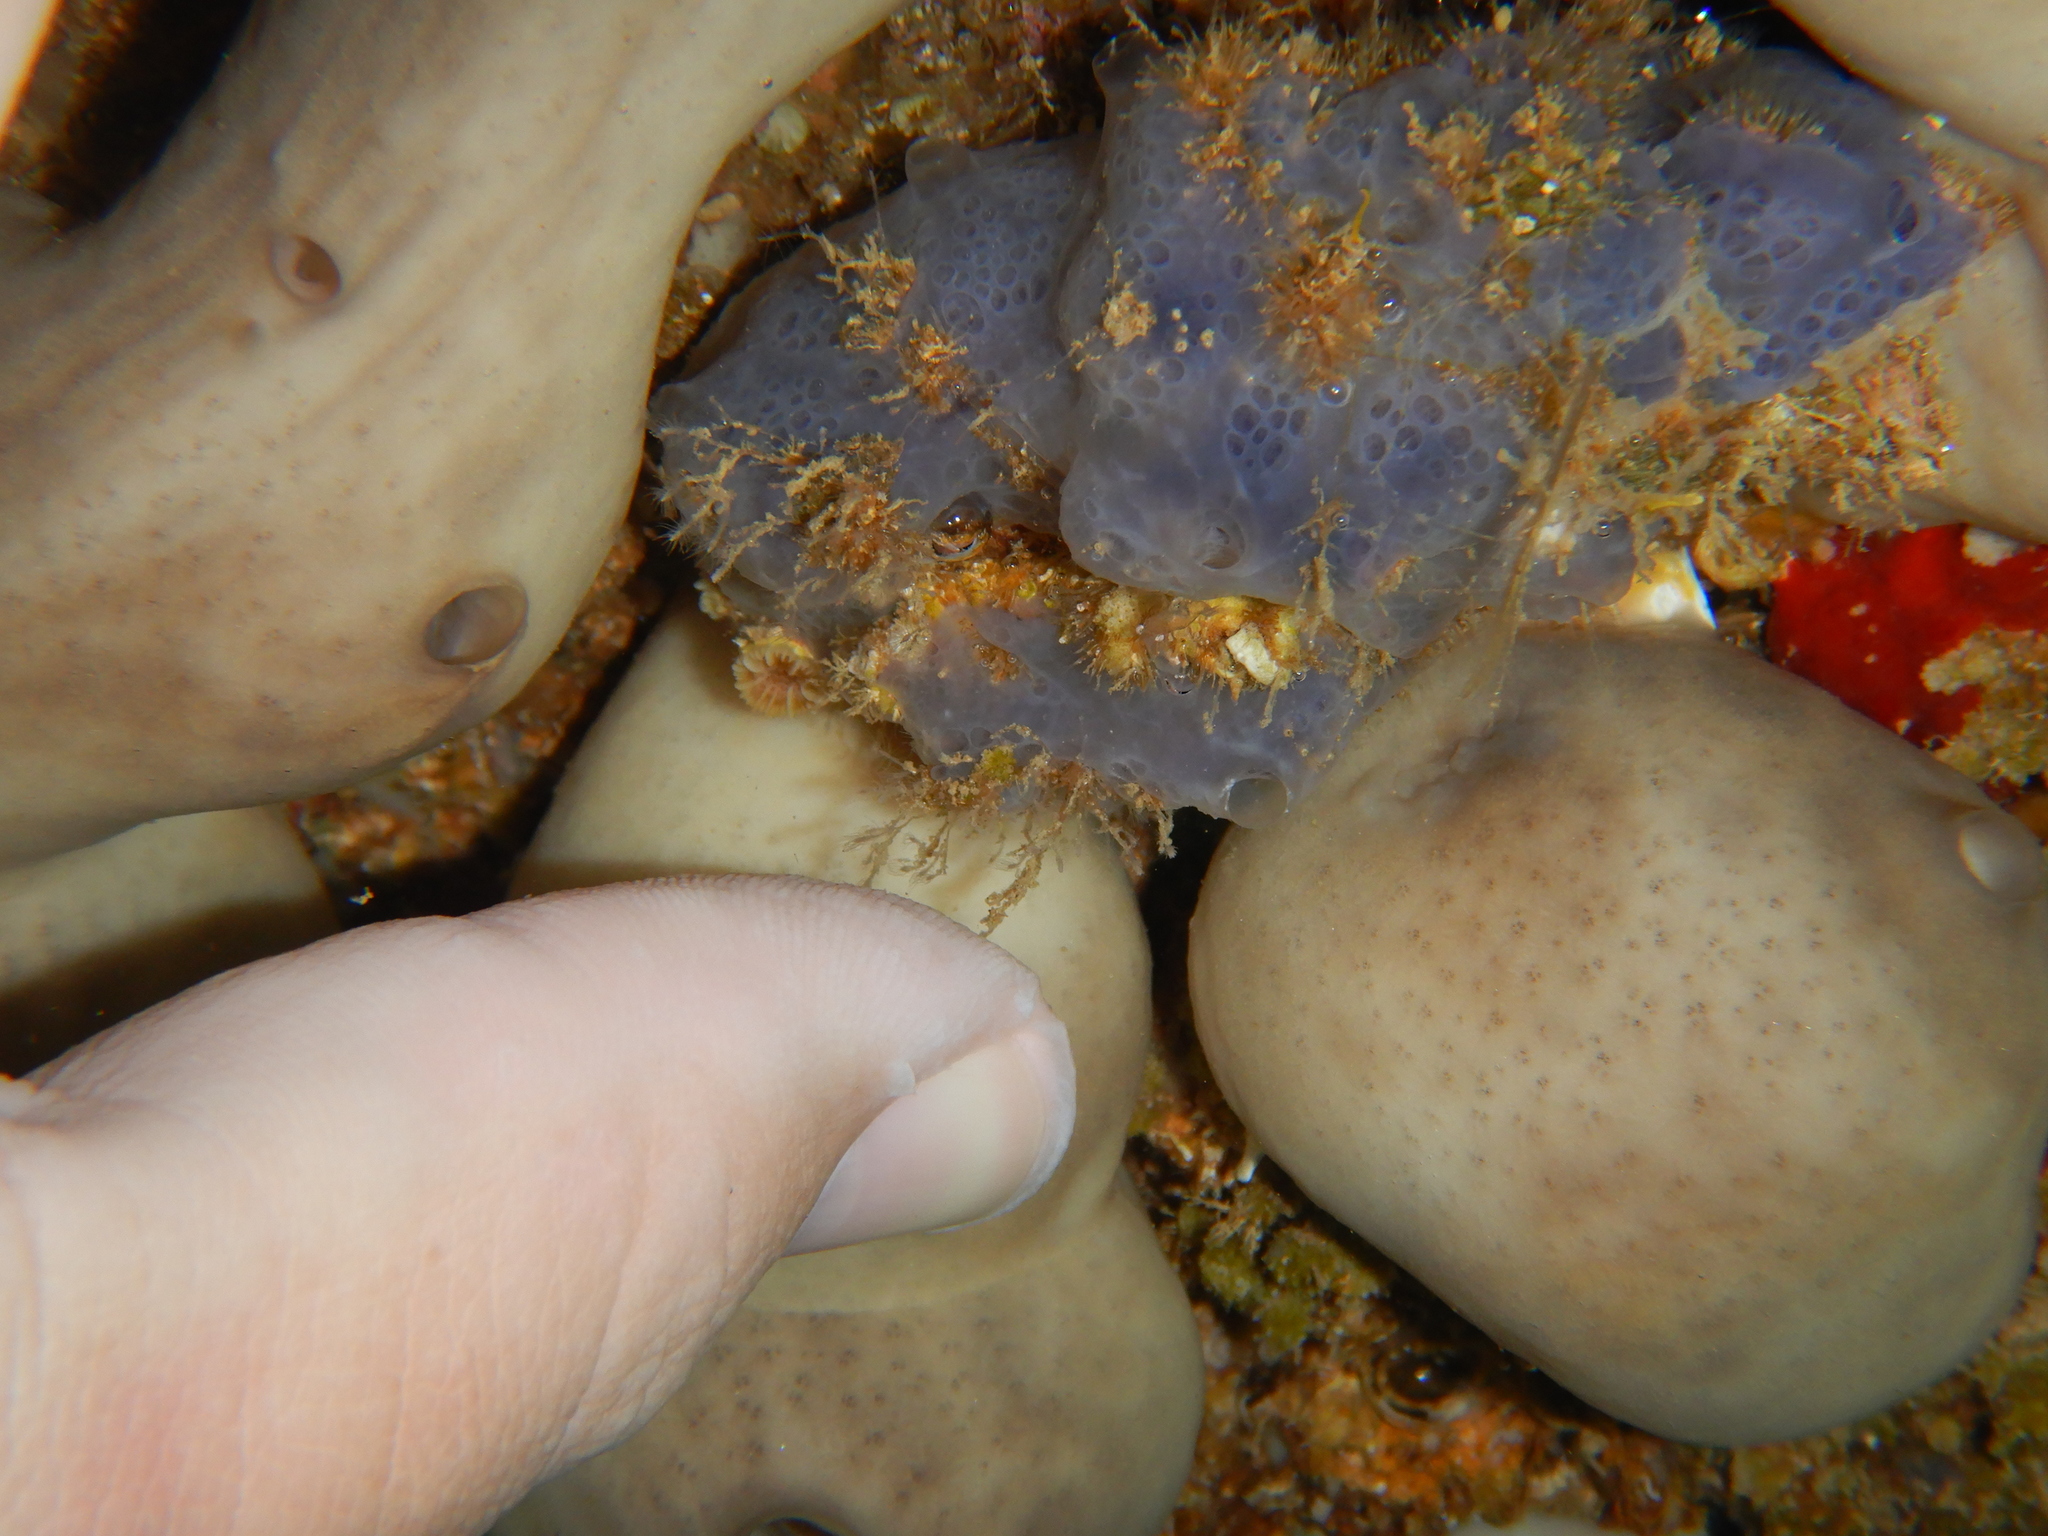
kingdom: Animalia
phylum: Porifera
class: Demospongiae
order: Poecilosclerida
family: Hymedesmiidae
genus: Phorbas
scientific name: Phorbas tenacior
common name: Bluish encrusting sponge
